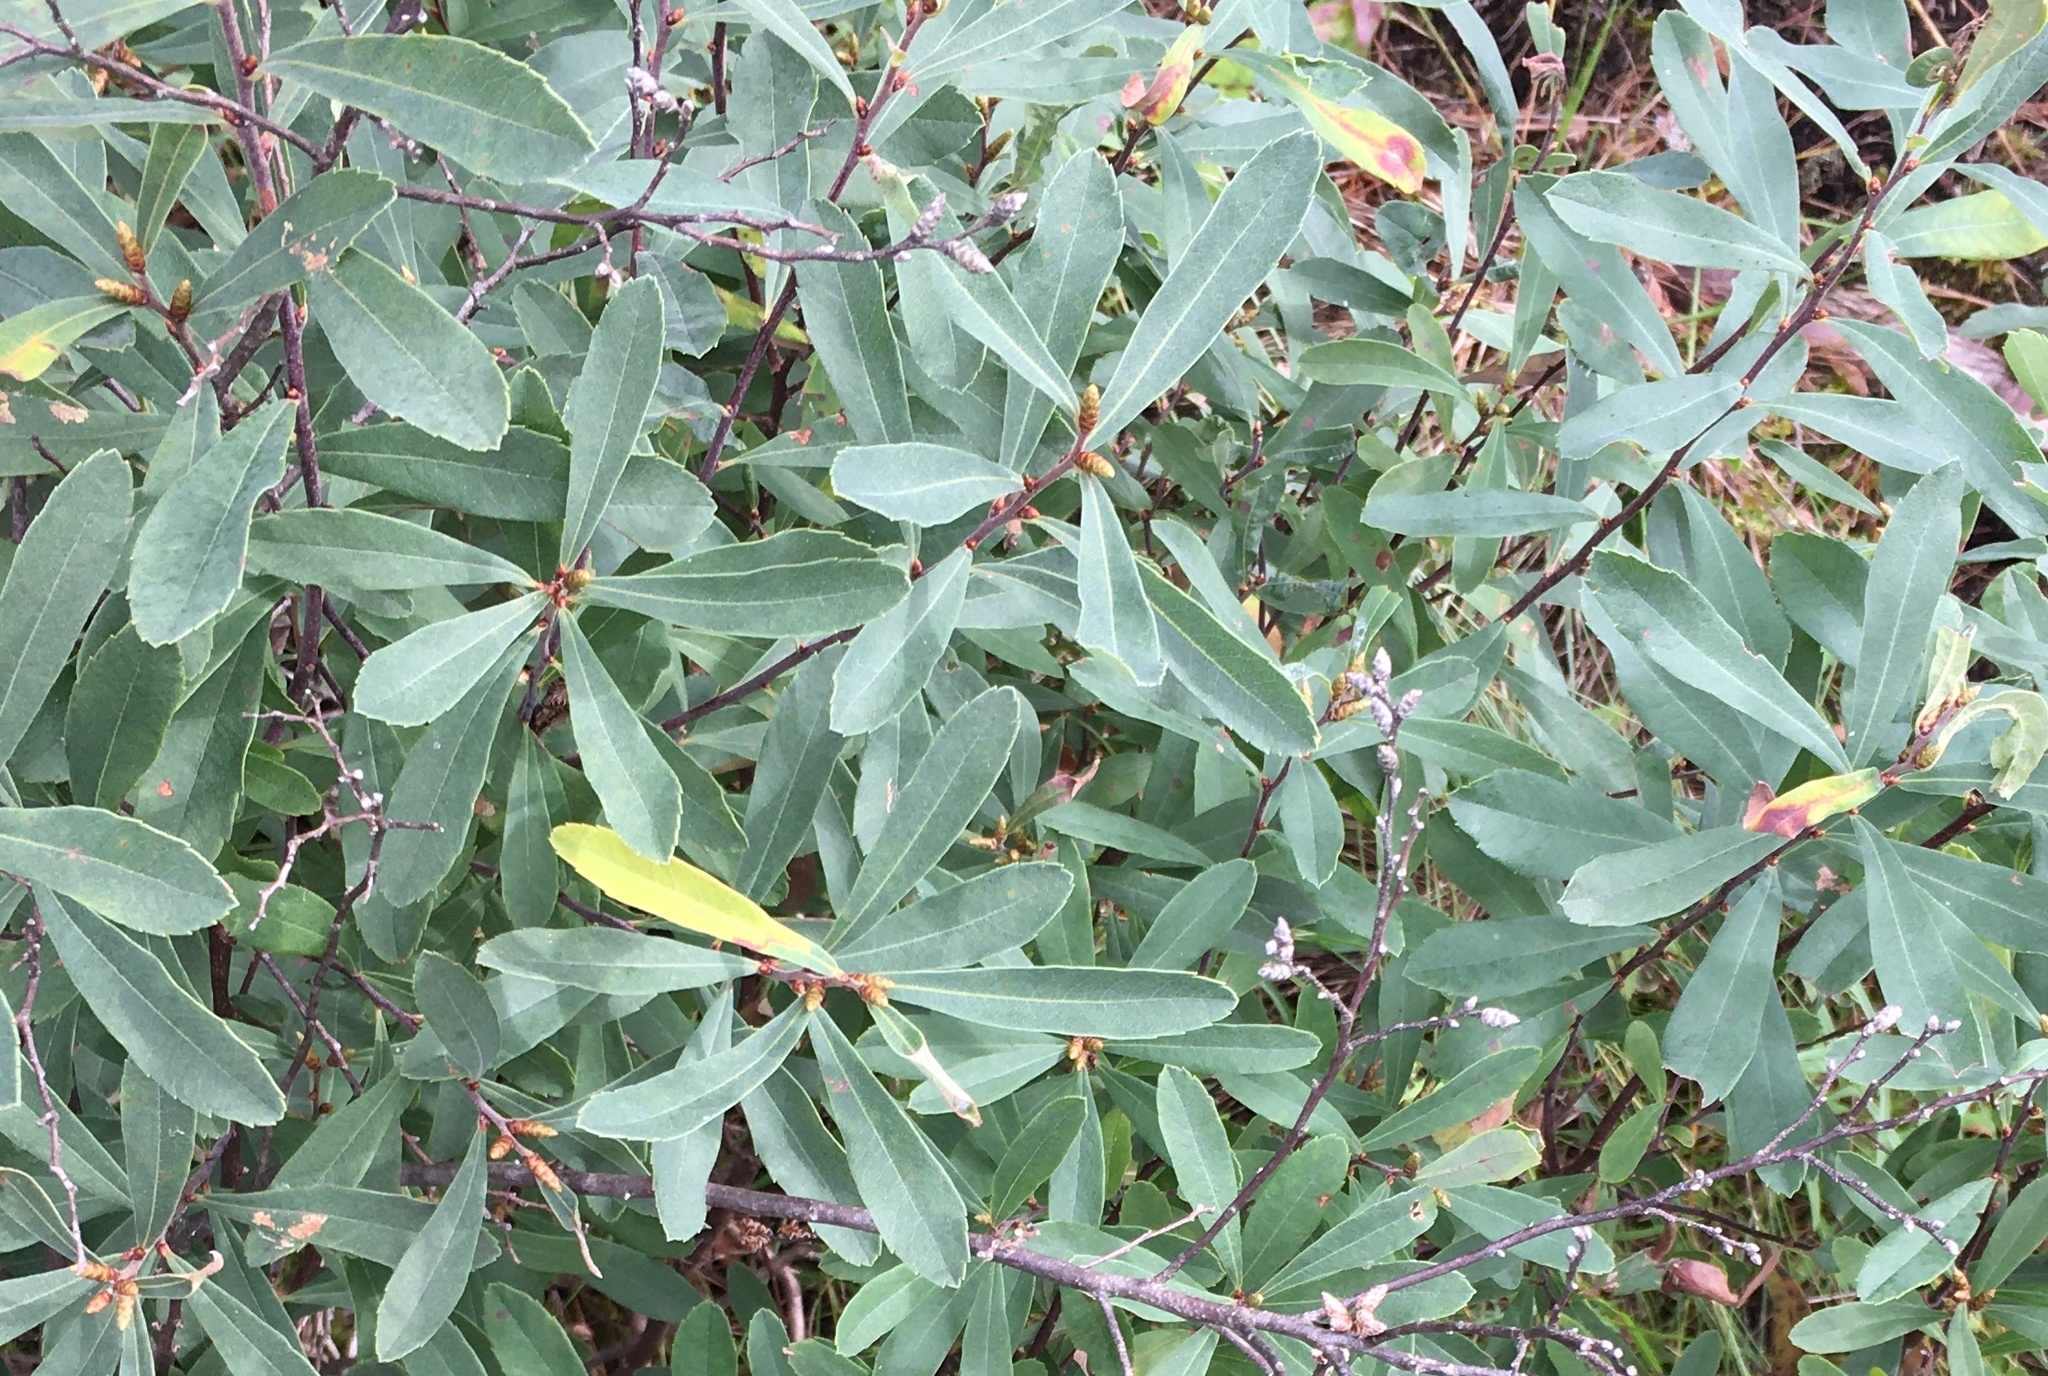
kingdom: Plantae
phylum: Tracheophyta
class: Magnoliopsida
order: Fagales
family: Myricaceae
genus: Myrica
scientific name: Myrica gale
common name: Sweet gale
